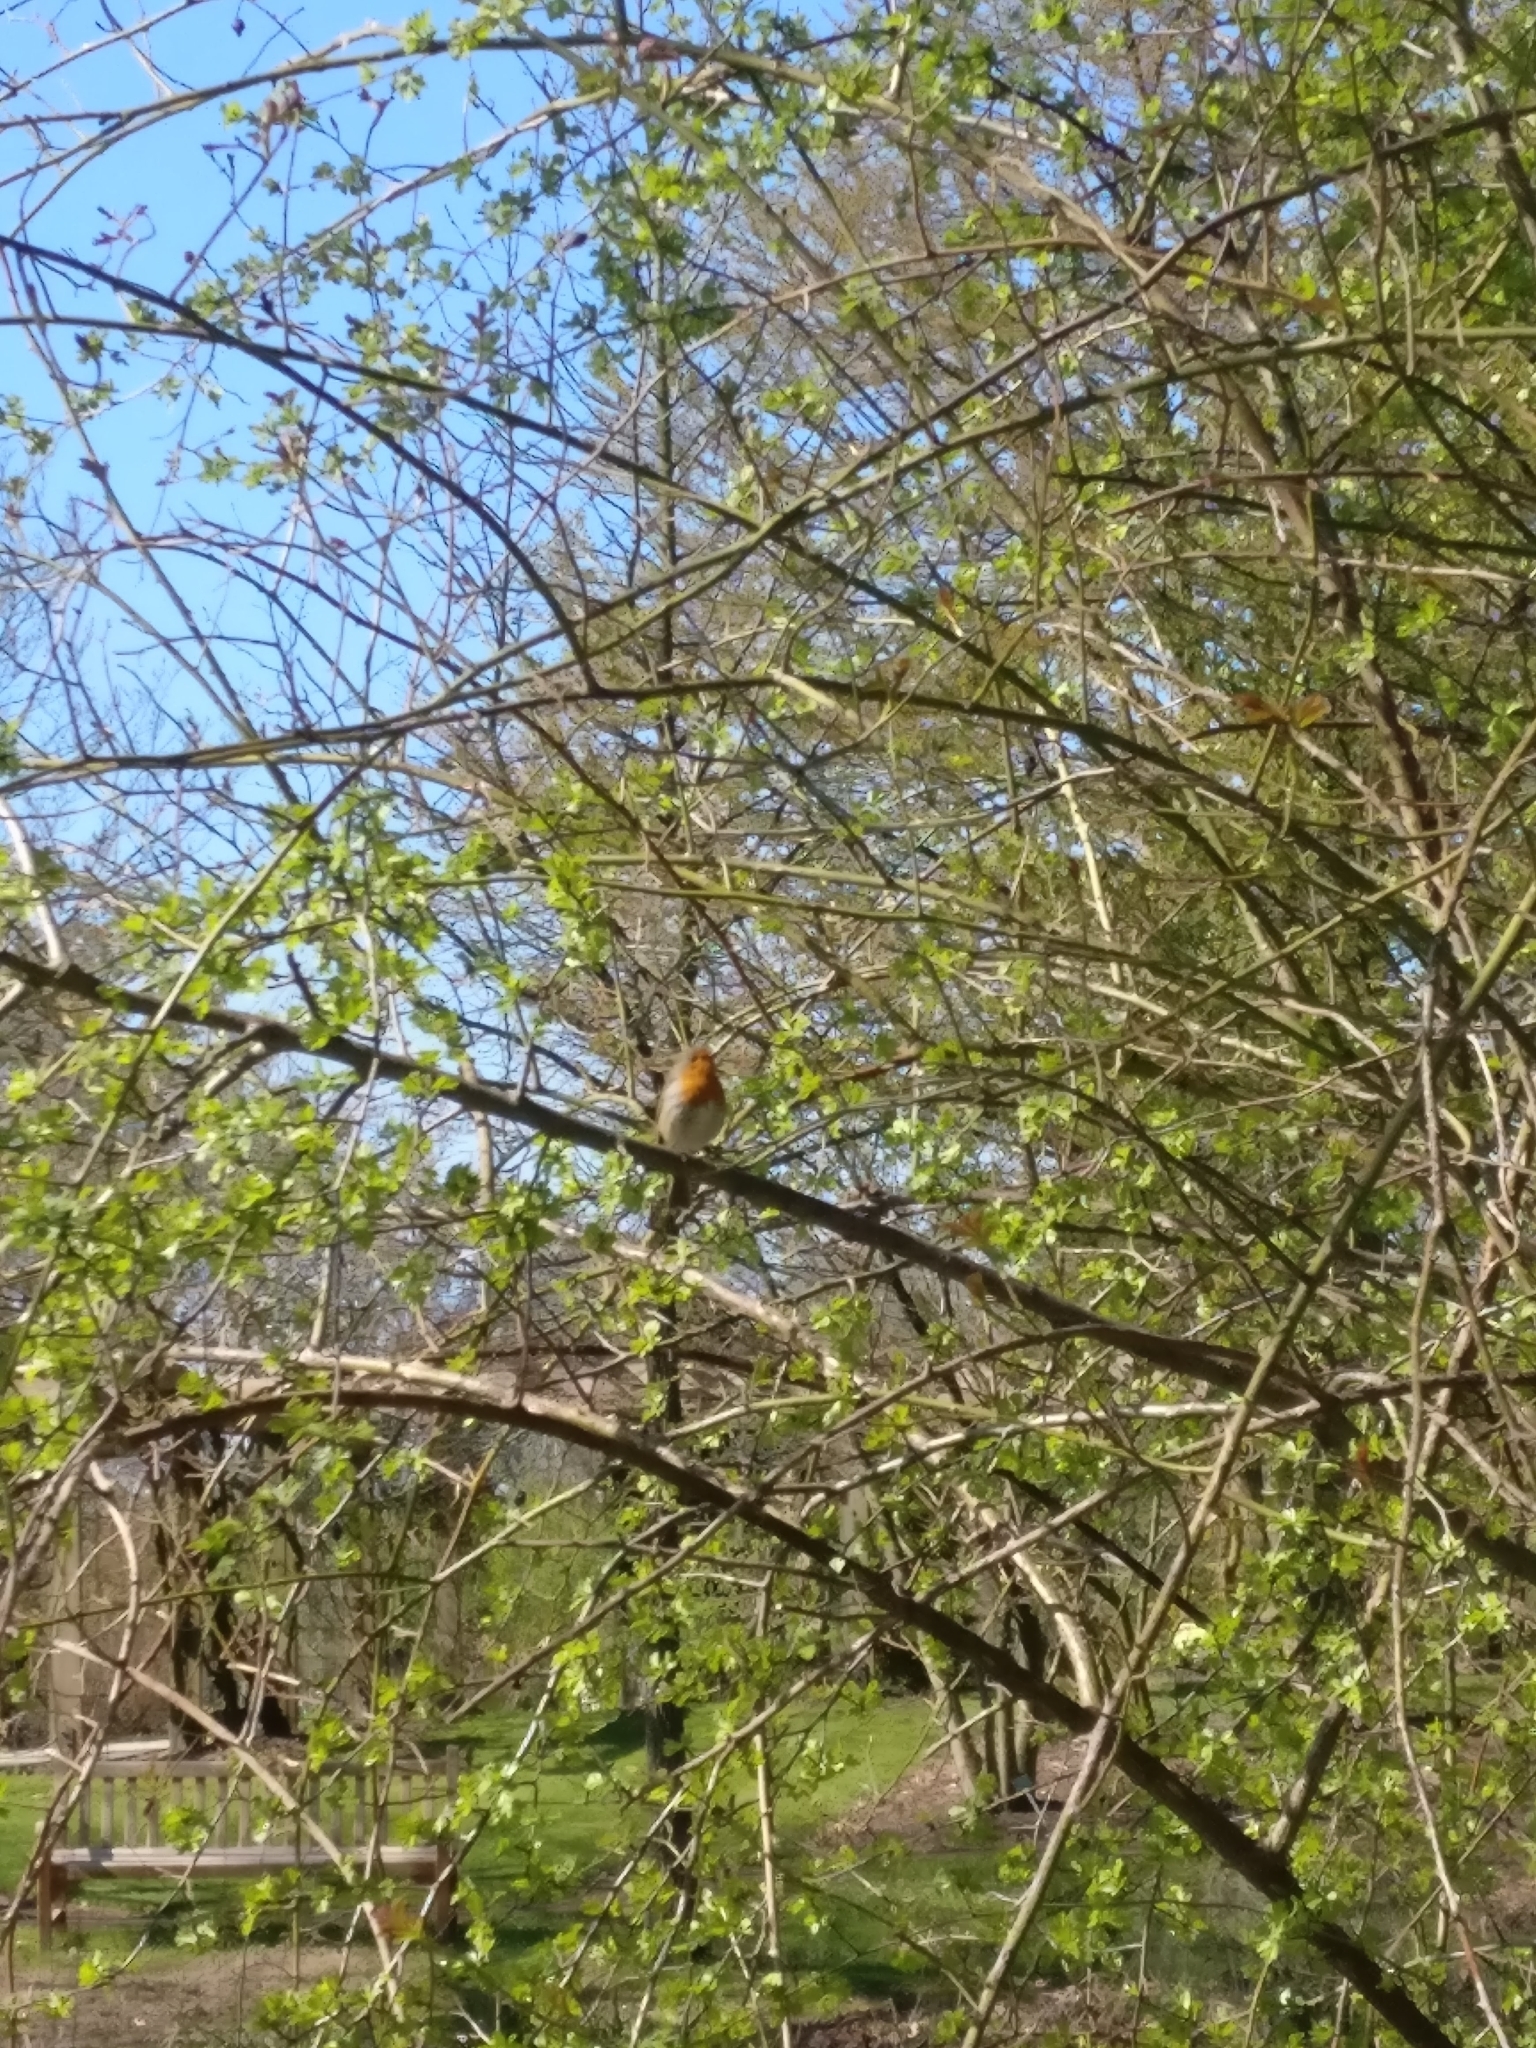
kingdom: Animalia
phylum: Chordata
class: Aves
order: Passeriformes
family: Muscicapidae
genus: Erithacus
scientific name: Erithacus rubecula
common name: European robin
